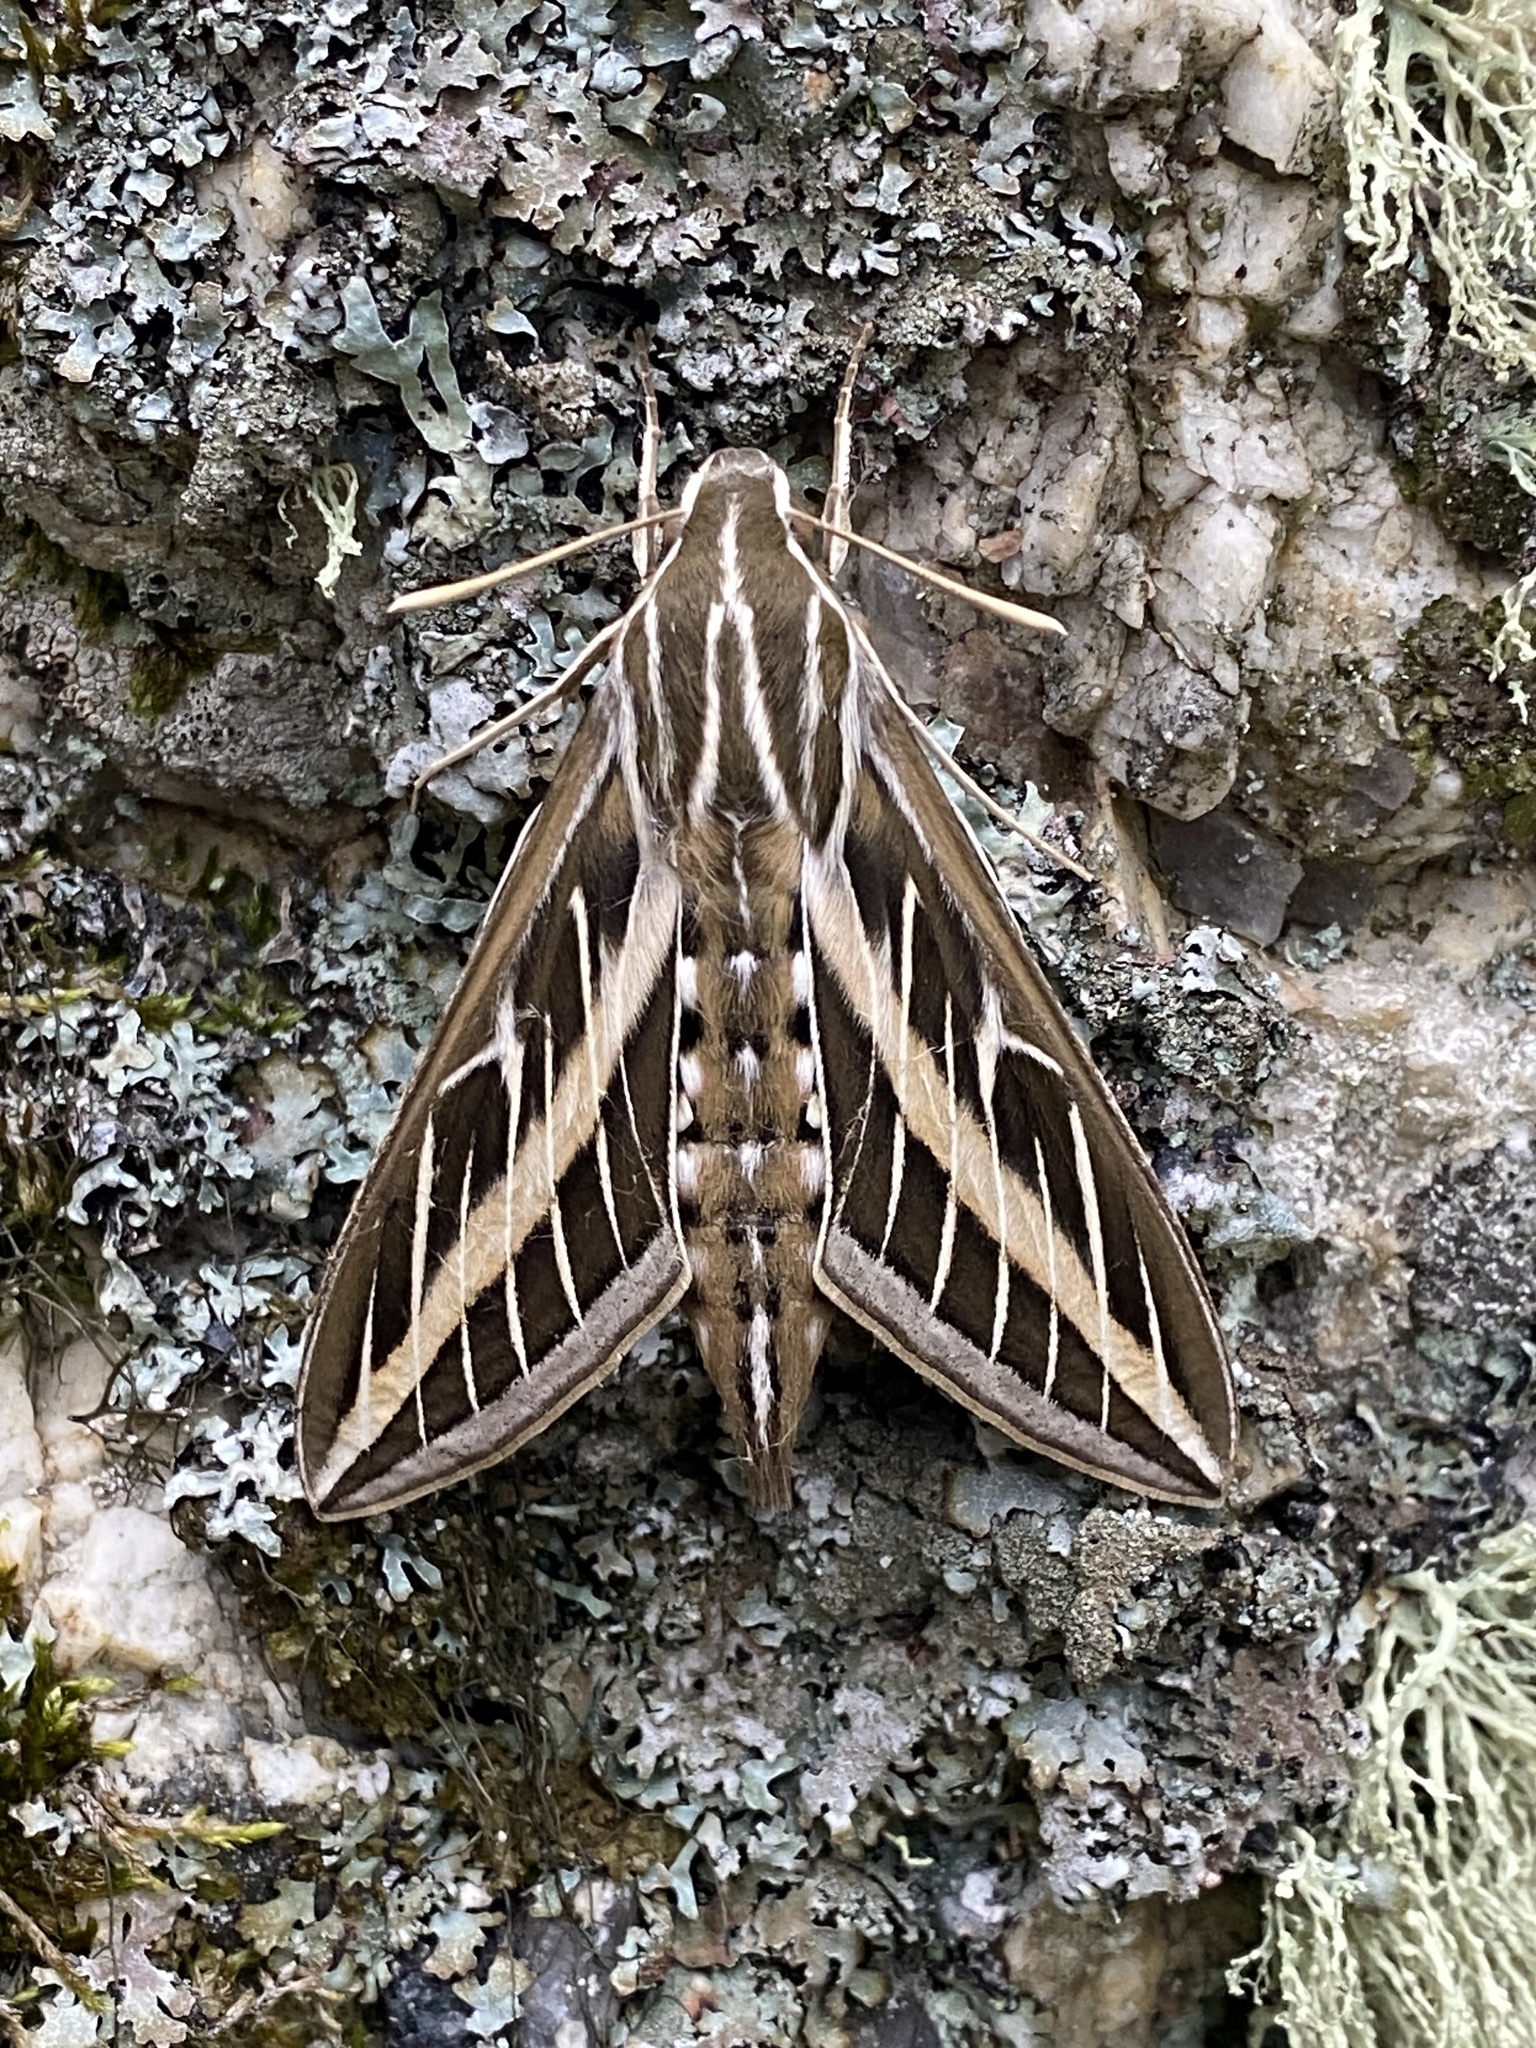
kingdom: Animalia
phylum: Arthropoda
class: Insecta
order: Lepidoptera
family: Sphingidae
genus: Hyles
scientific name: Hyles lineata
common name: White-lined sphinx
